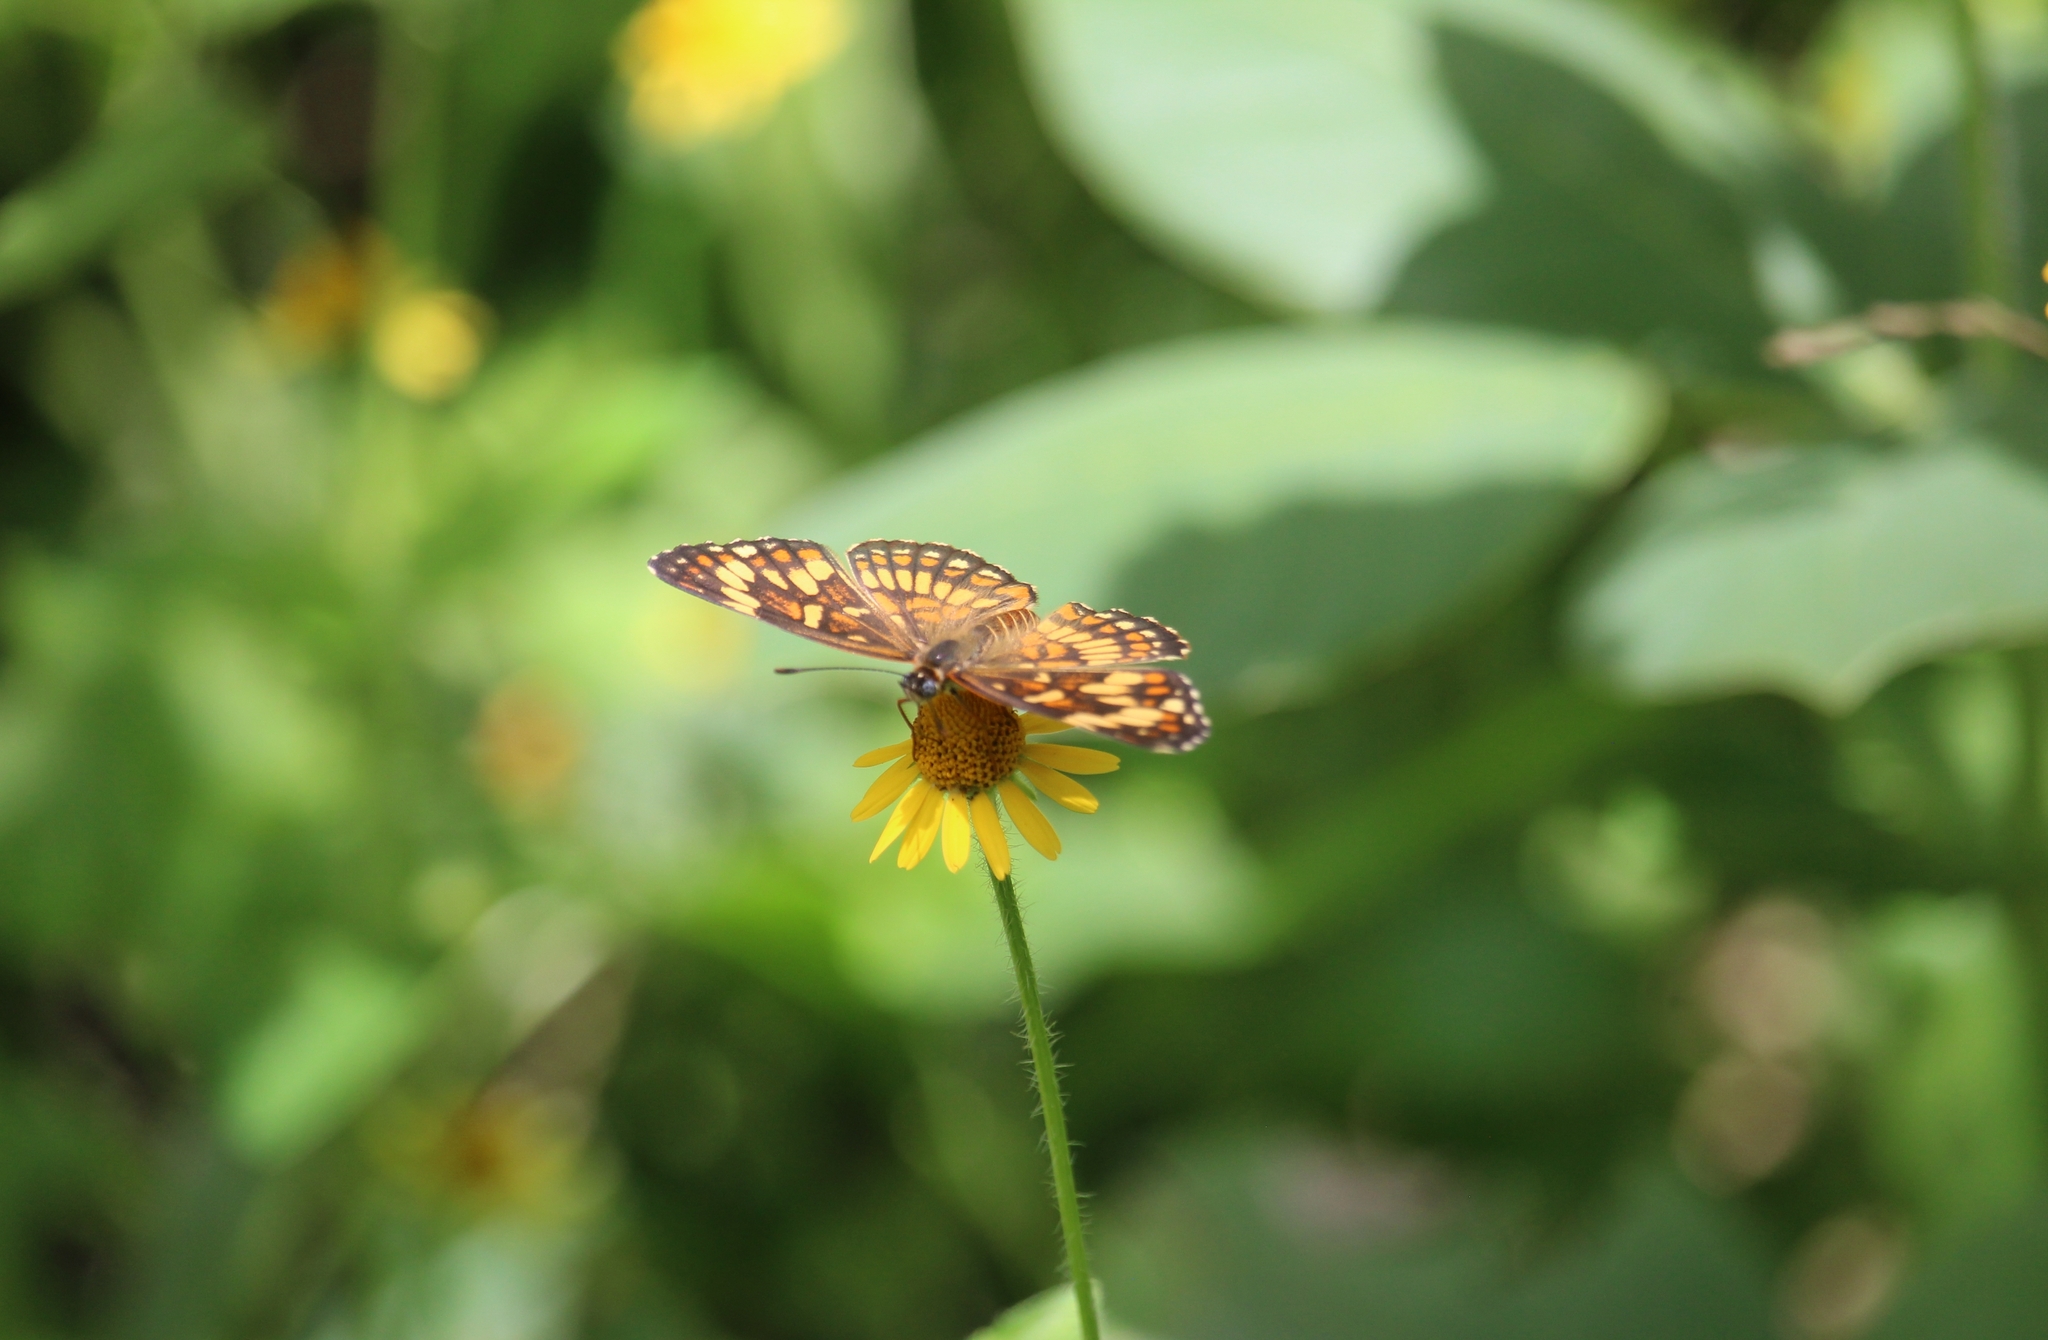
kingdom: Animalia
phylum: Arthropoda
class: Insecta
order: Lepidoptera
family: Nymphalidae
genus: Thessalia
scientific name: Thessalia theona
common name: Nymphalid moth
